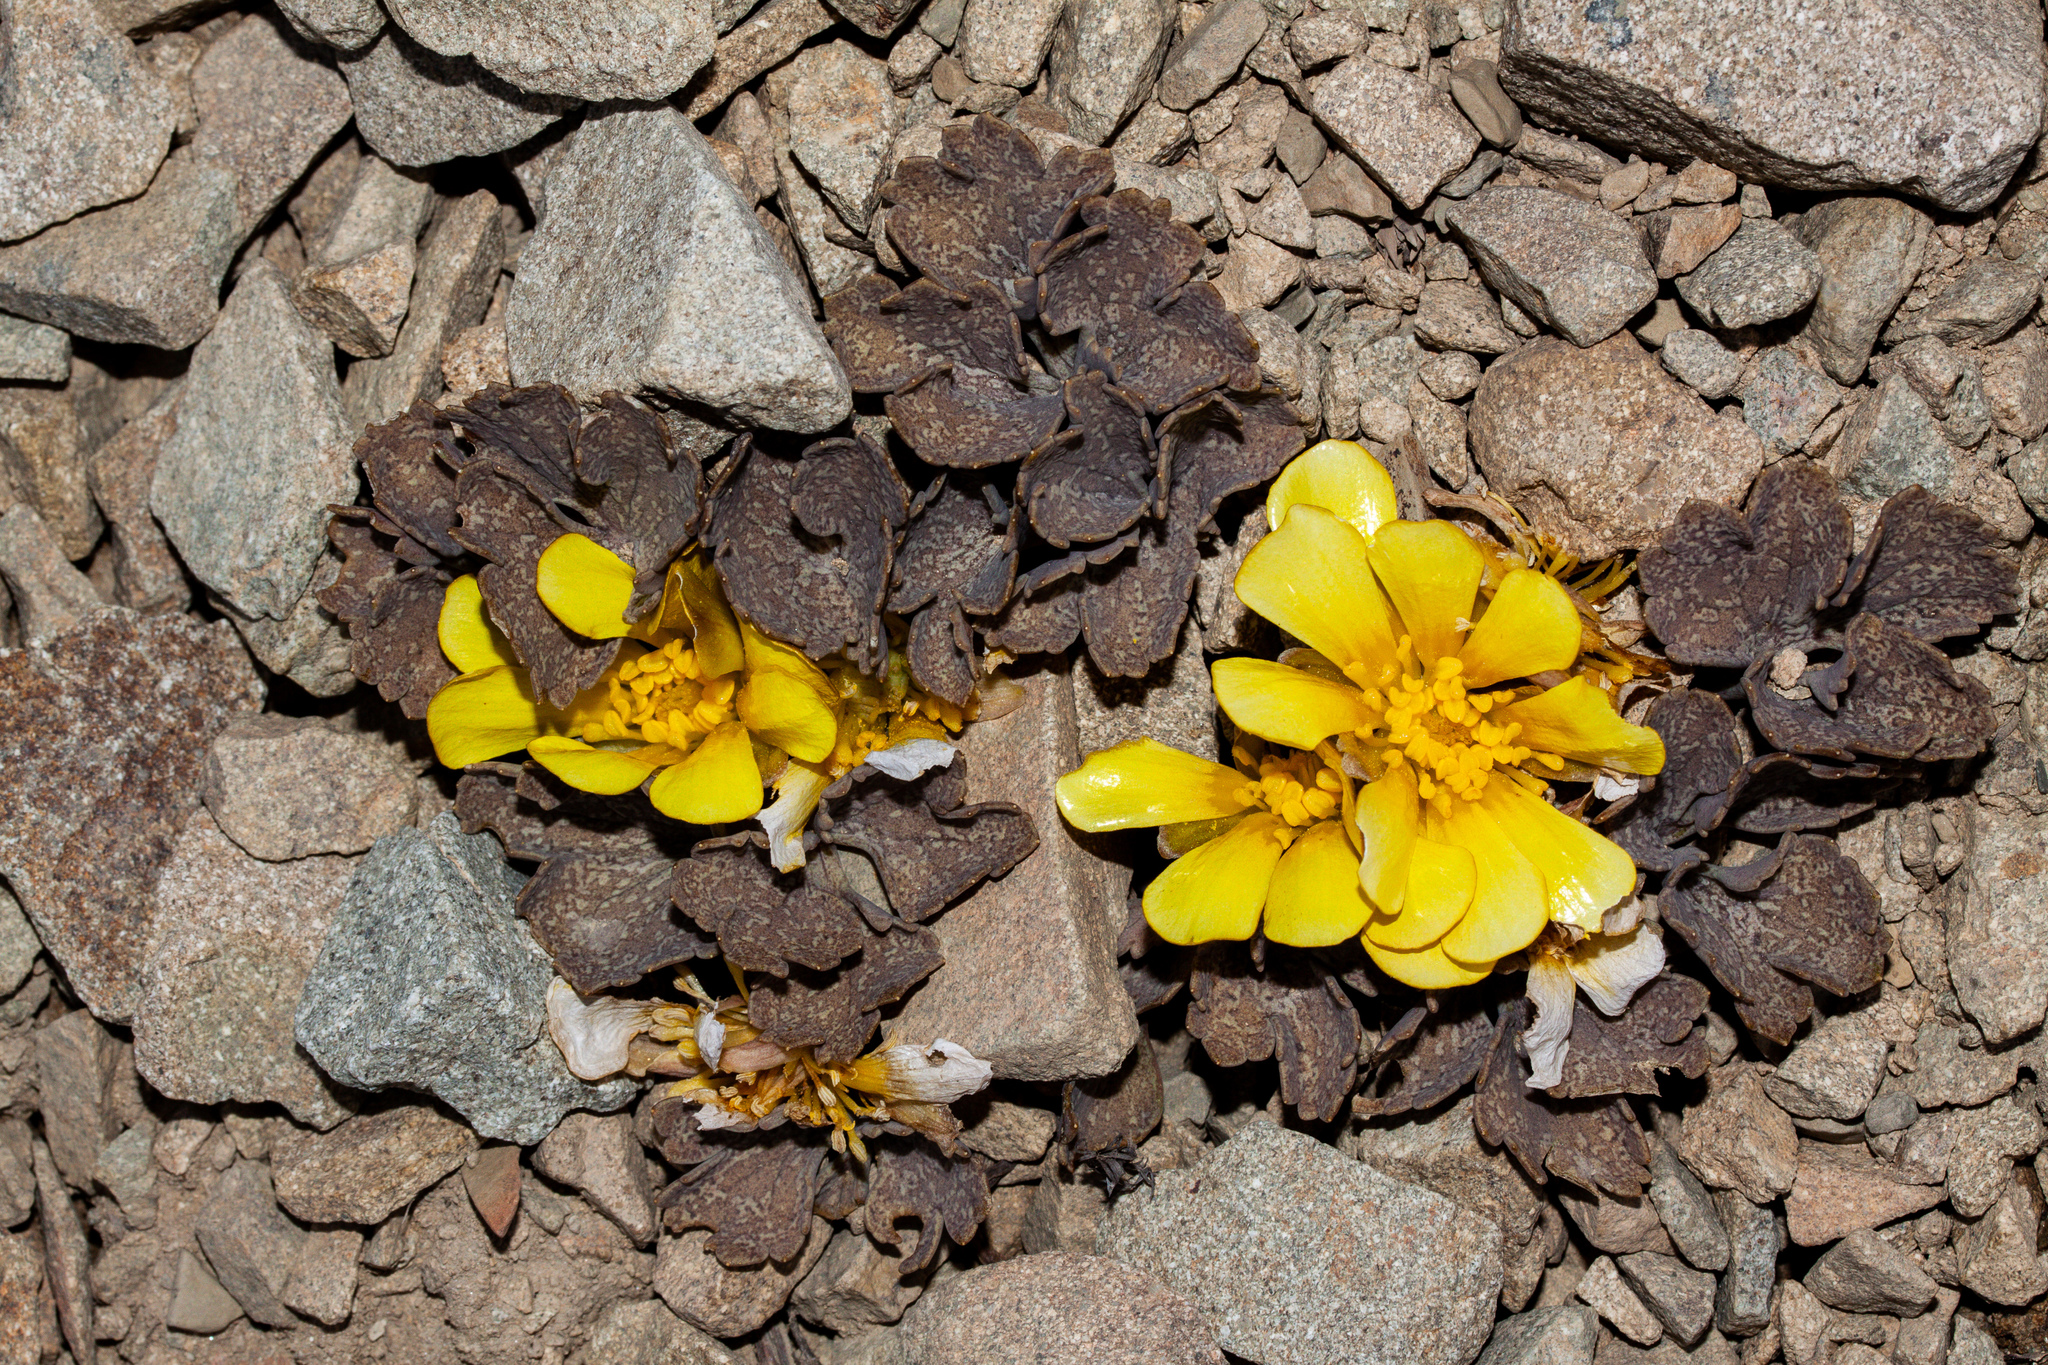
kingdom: Plantae
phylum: Tracheophyta
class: Magnoliopsida
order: Ranunculales
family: Ranunculaceae
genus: Ranunculus
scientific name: Ranunculus crithmifolius
